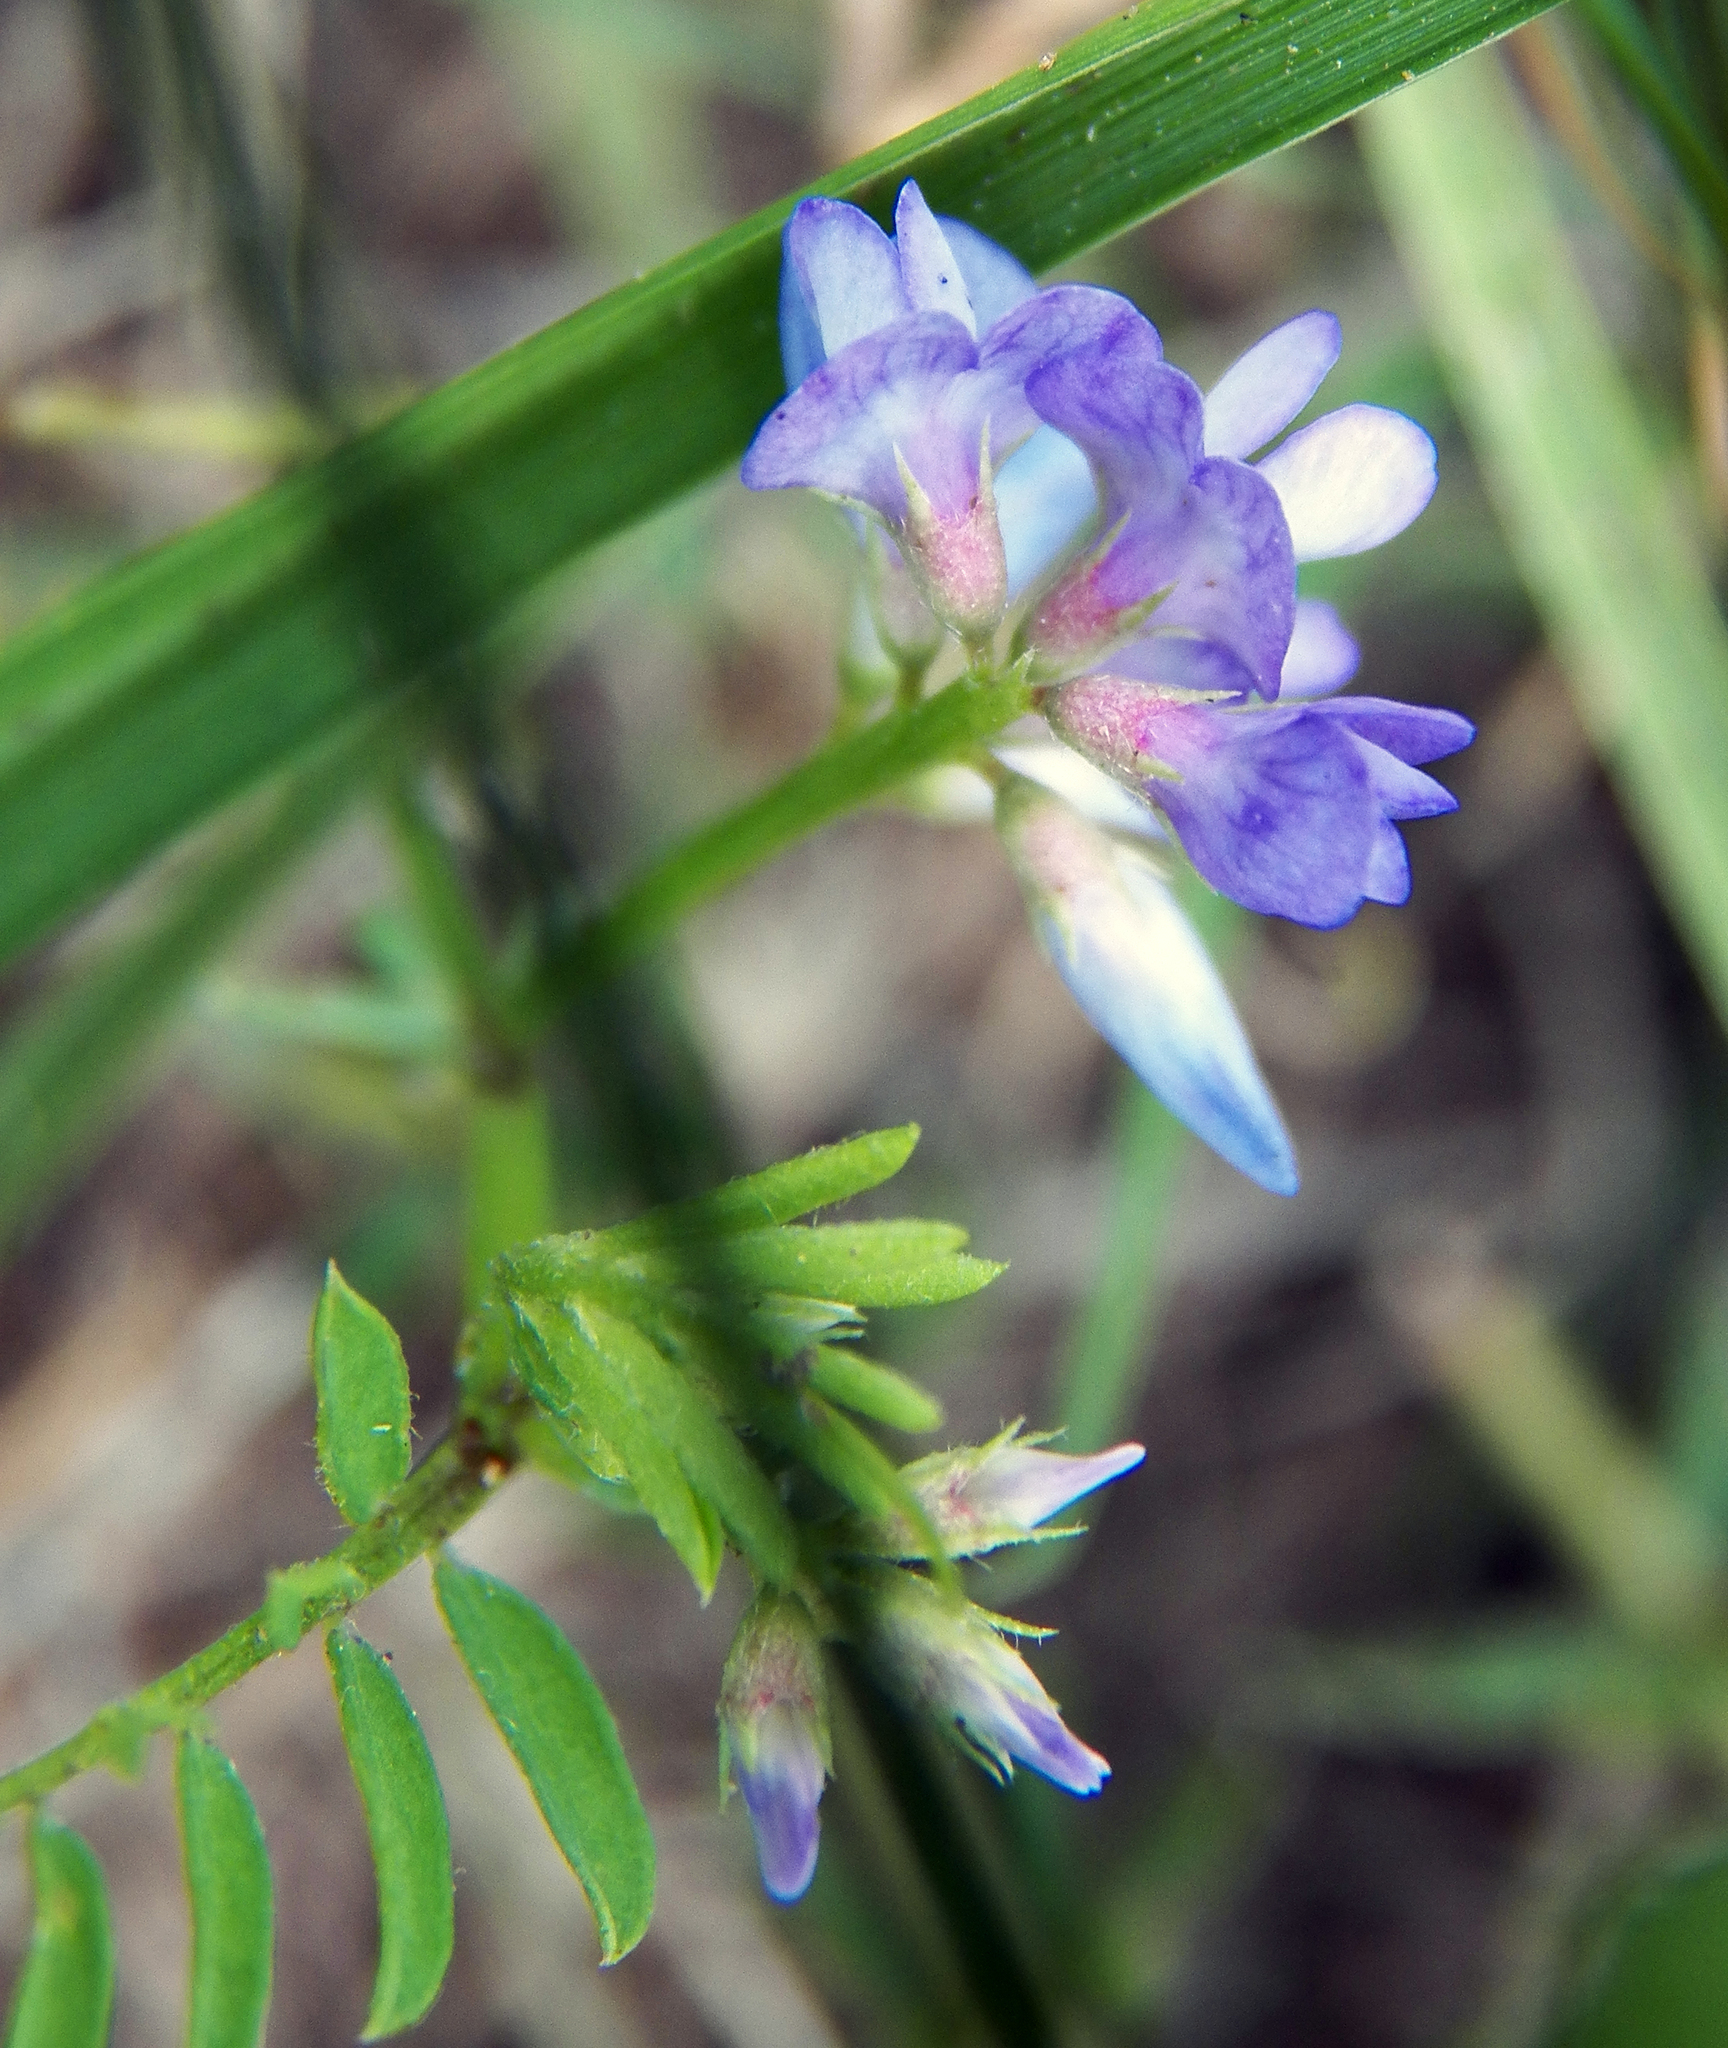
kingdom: Plantae
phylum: Tracheophyta
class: Magnoliopsida
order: Fabales
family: Fabaceae
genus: Vicia
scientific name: Vicia ludoviciana
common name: Louisiana vetch
